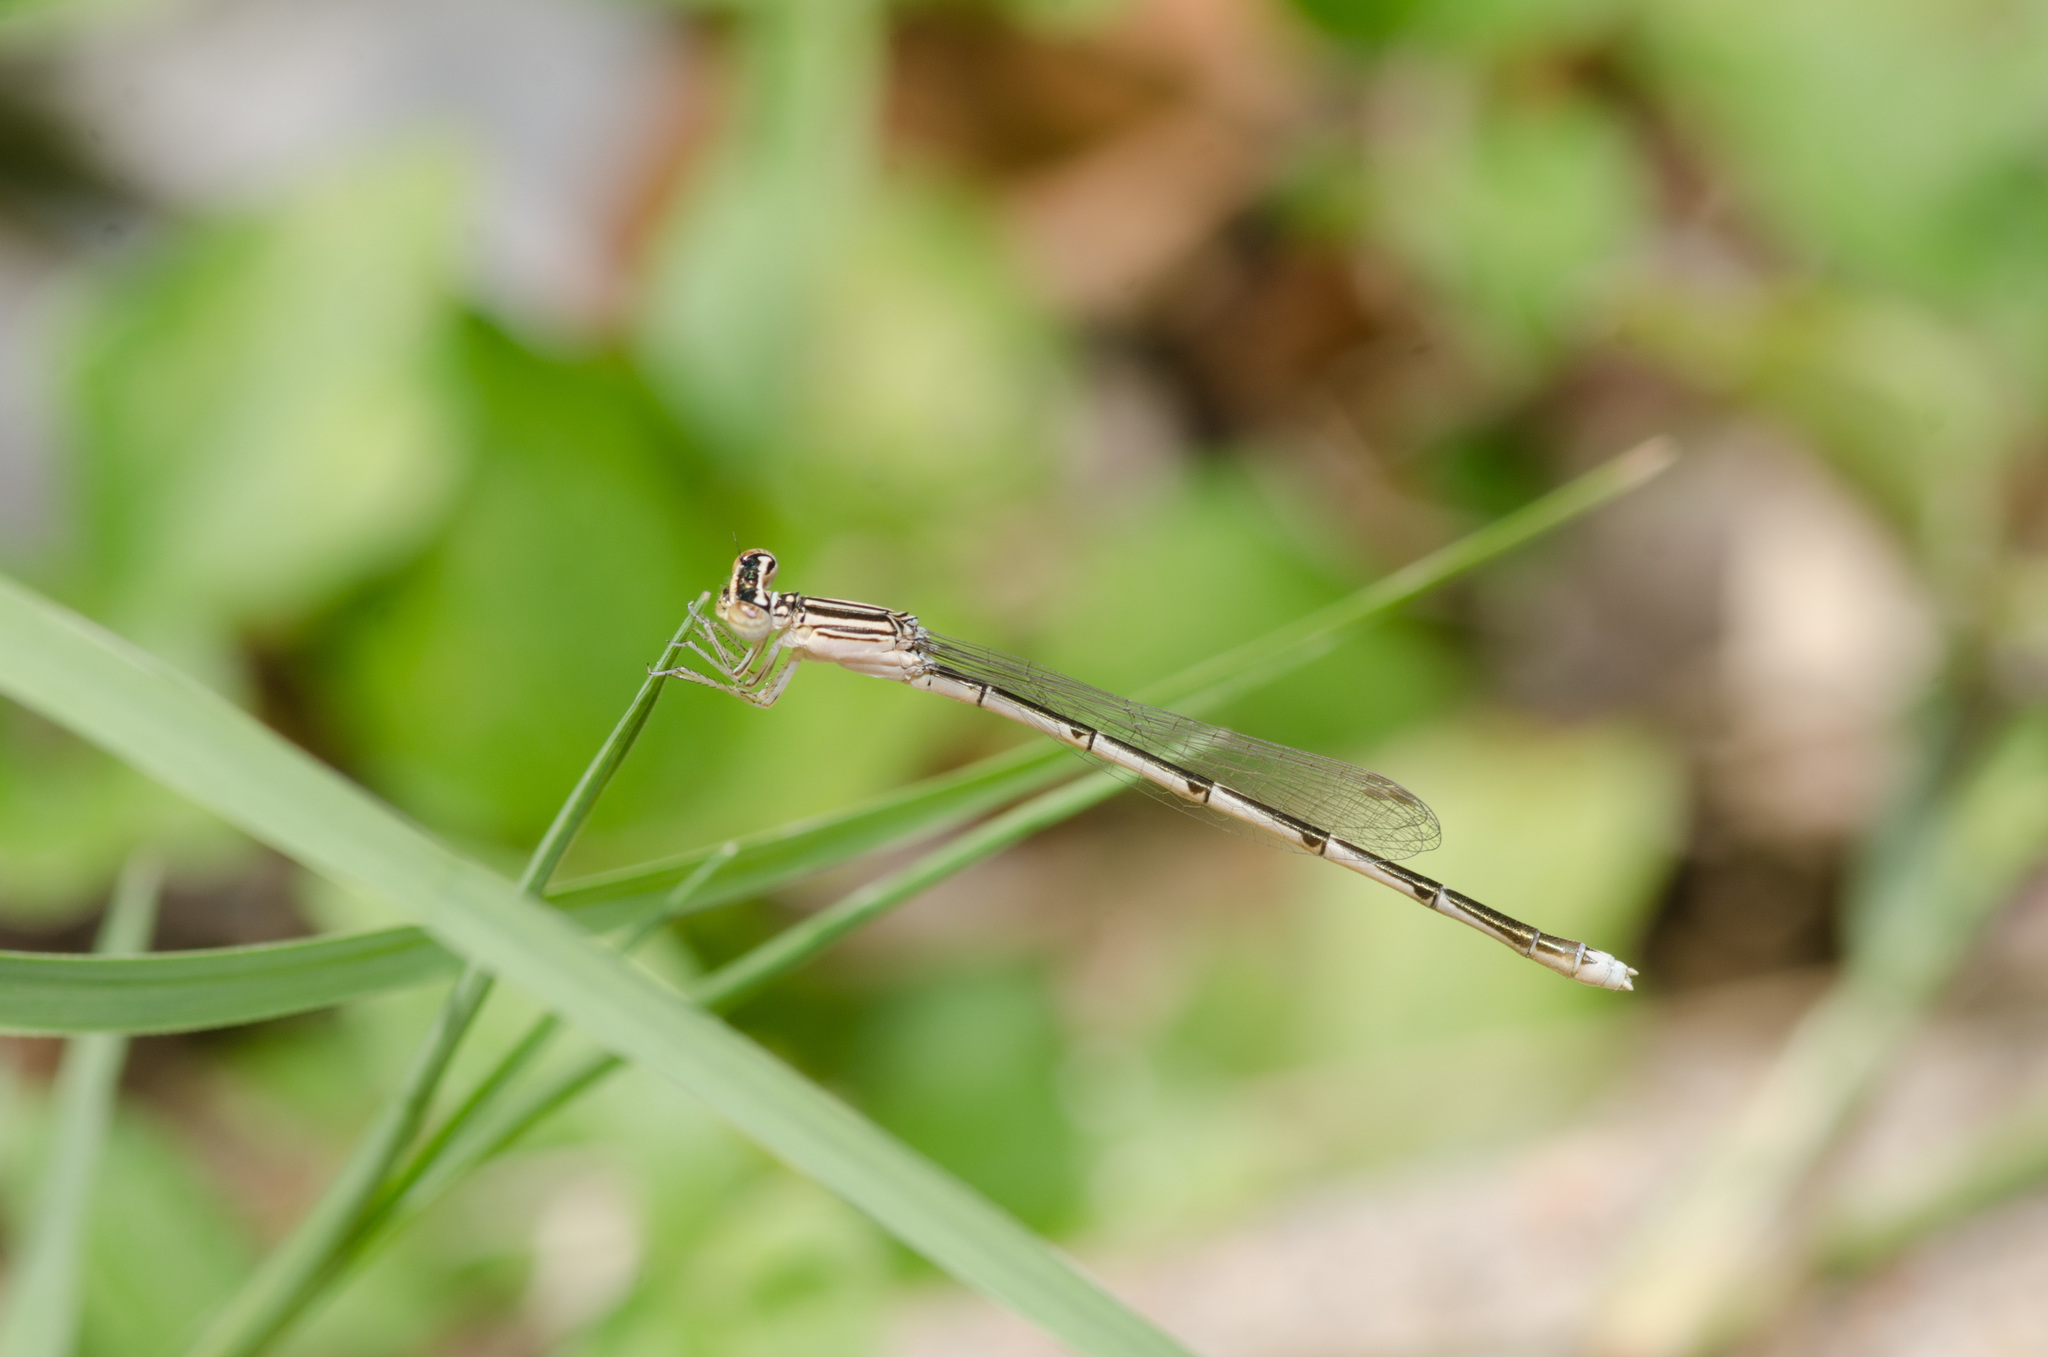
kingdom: Animalia
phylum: Arthropoda
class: Insecta
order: Odonata
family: Coenagrionidae
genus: Enallagma
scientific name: Enallagma basidens
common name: Double-striped bluet
